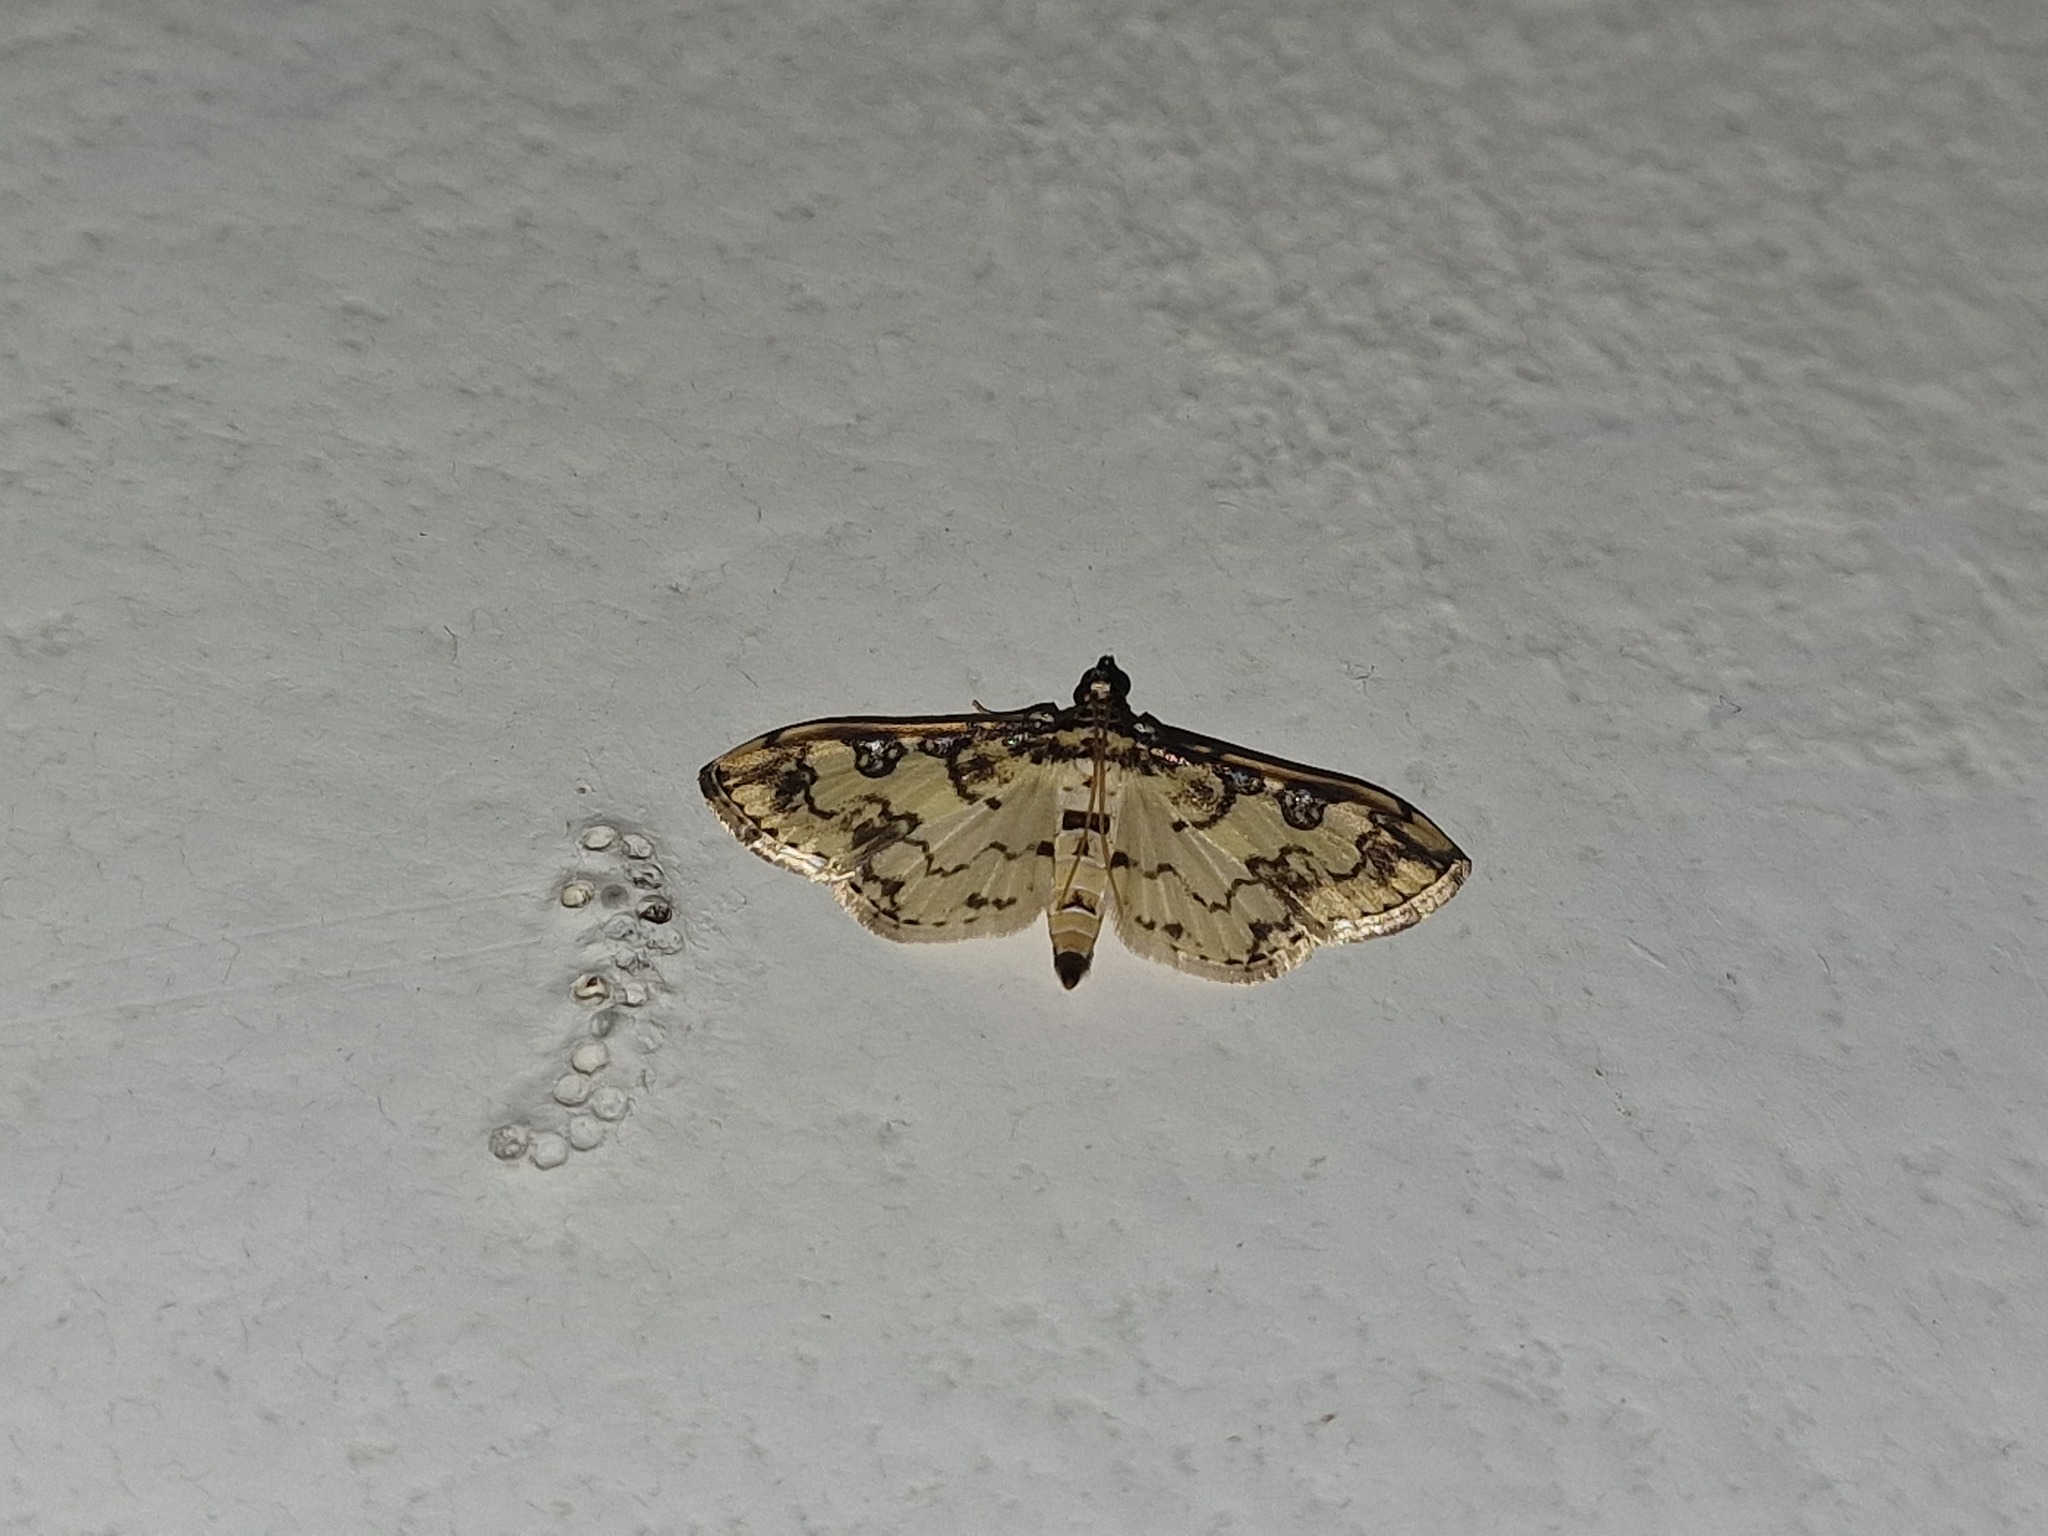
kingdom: Animalia
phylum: Arthropoda
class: Insecta
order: Lepidoptera
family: Crambidae
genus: Lamprosema
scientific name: Lamprosema lucillalis
